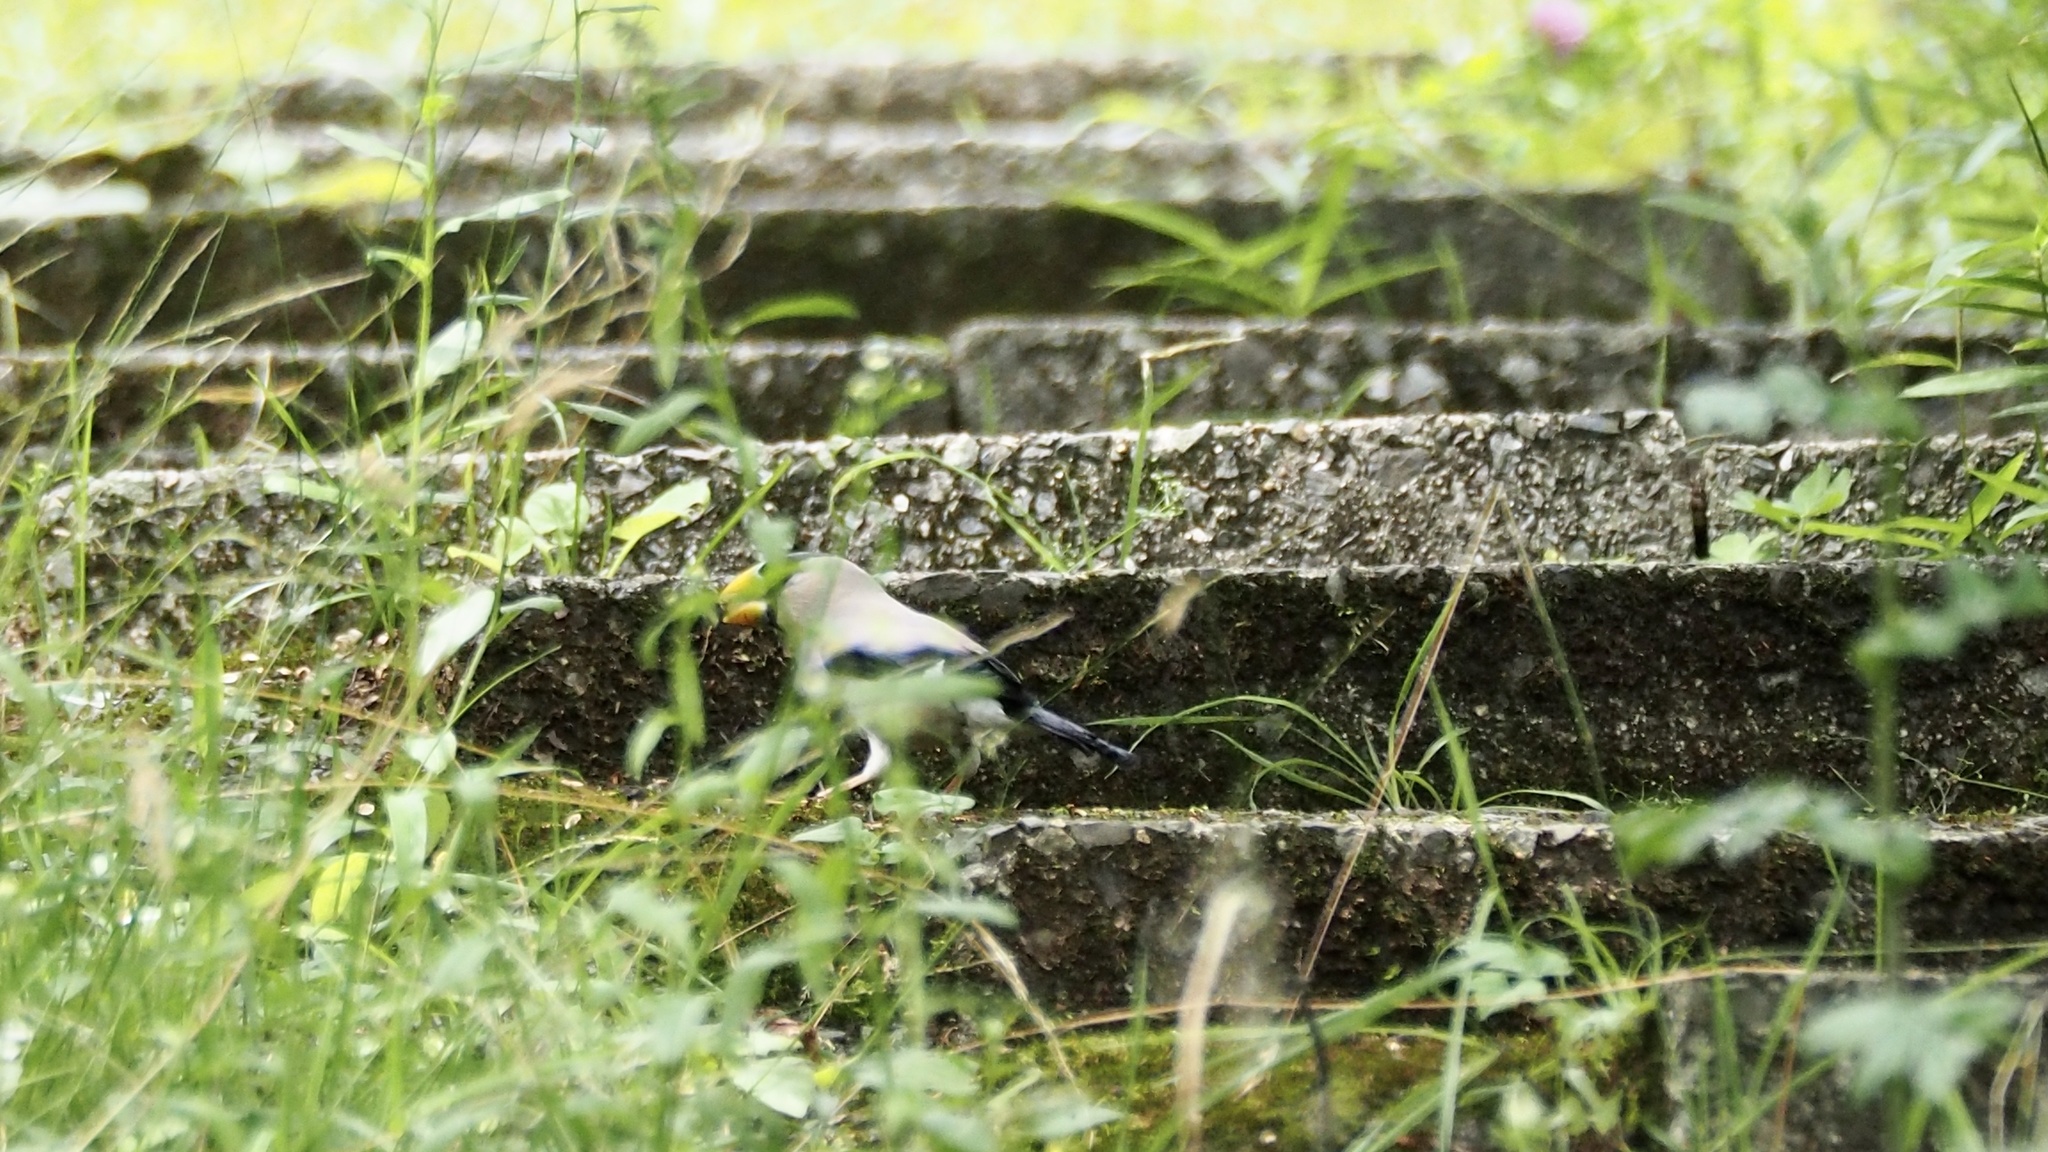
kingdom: Animalia
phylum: Chordata
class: Aves
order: Passeriformes
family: Fringillidae
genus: Eophona
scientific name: Eophona personata
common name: Japanese grosbeak
